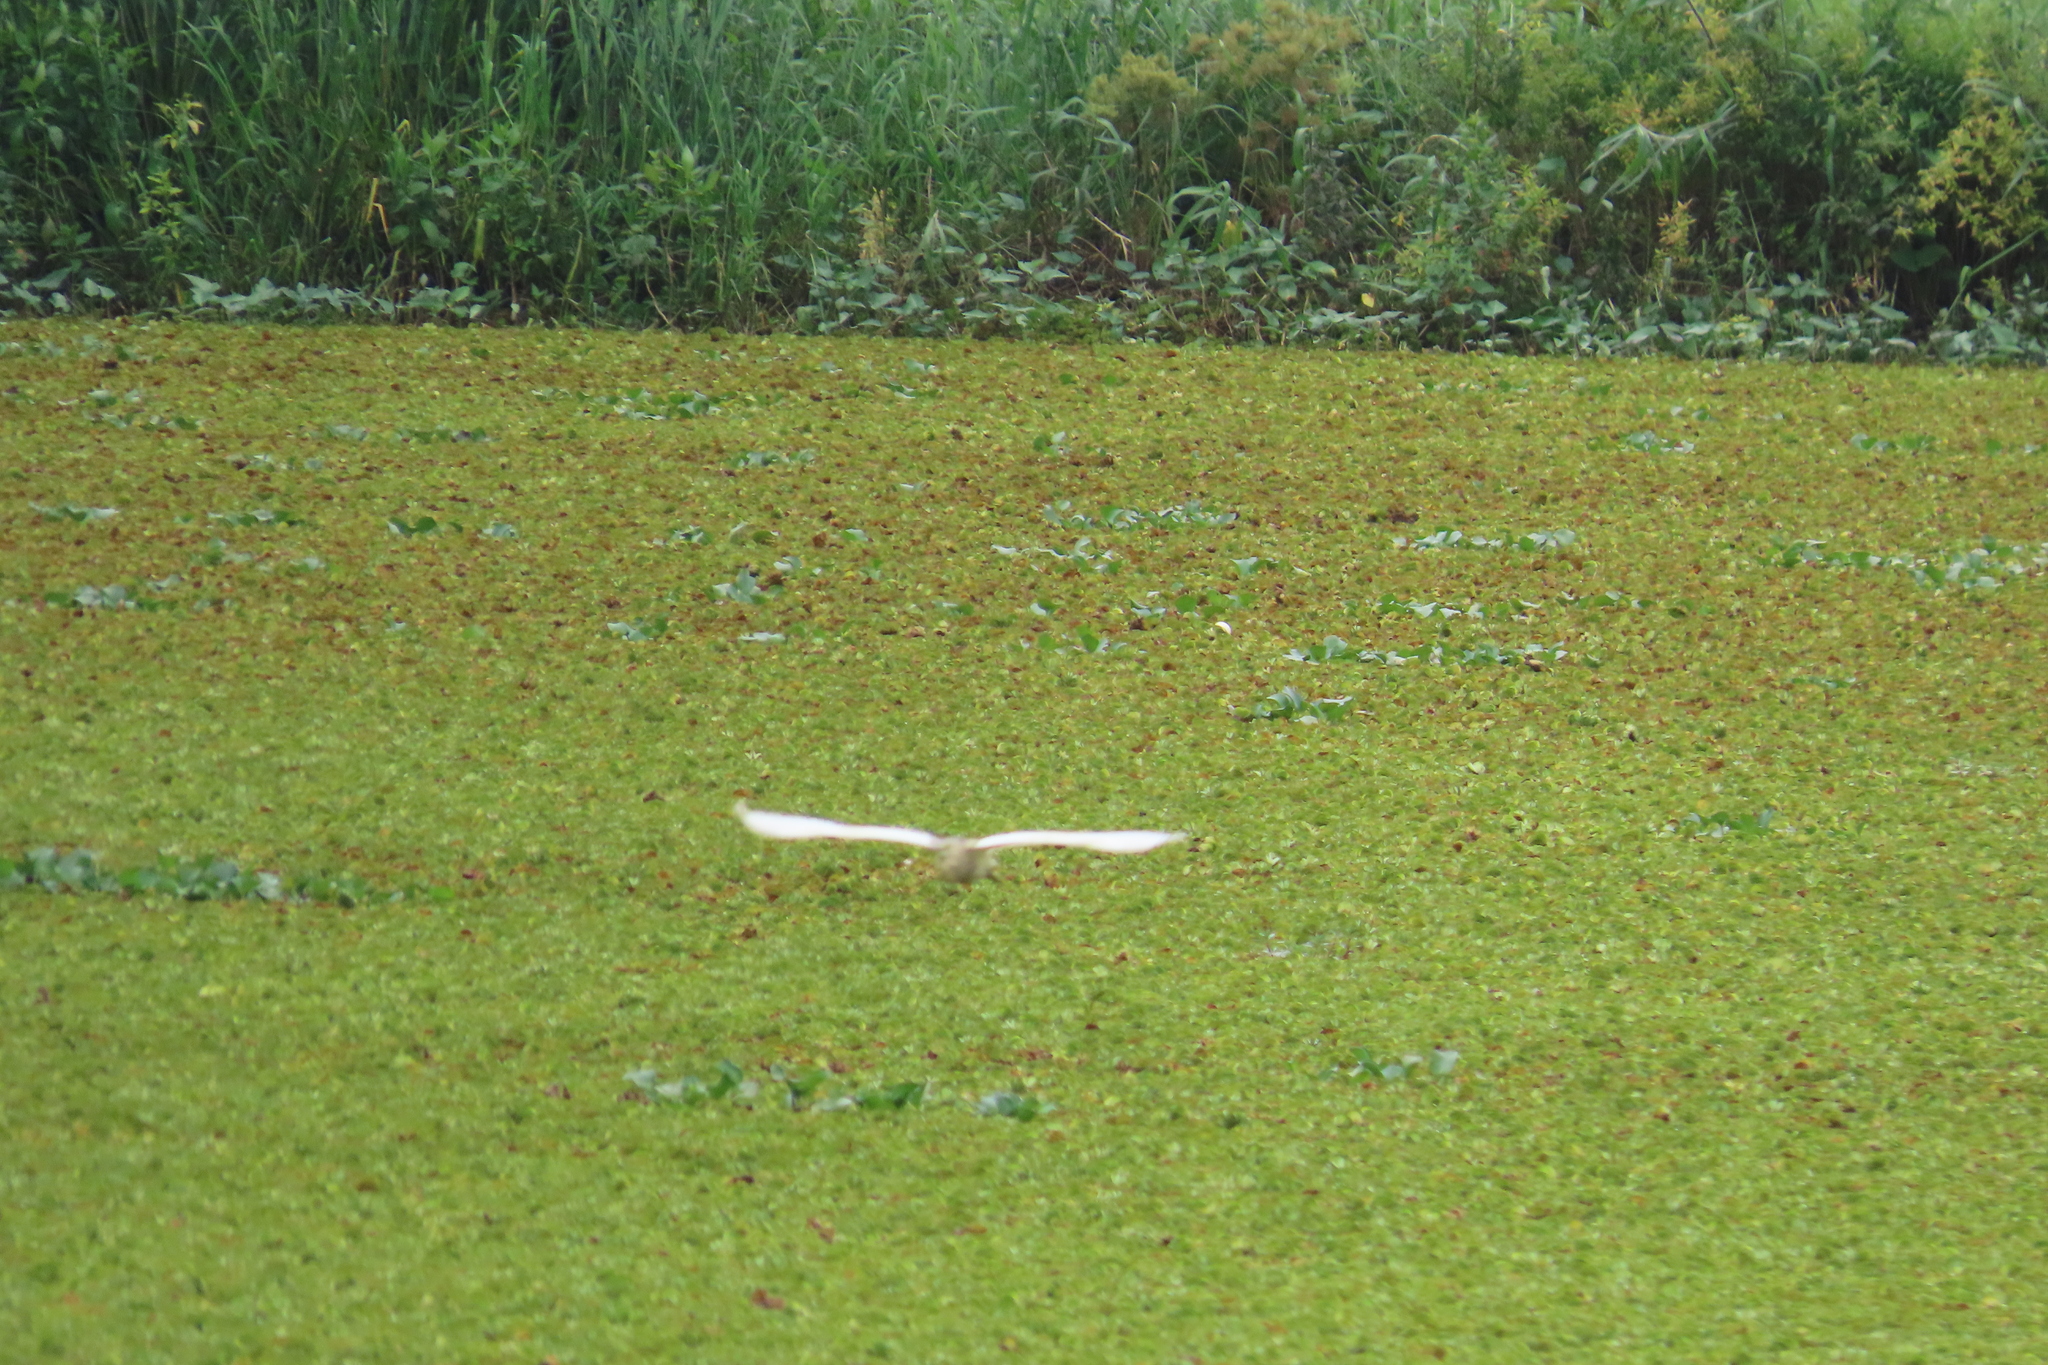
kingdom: Animalia
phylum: Chordata
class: Aves
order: Pelecaniformes
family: Ardeidae
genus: Ardeola
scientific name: Ardeola grayii
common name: Indian pond heron
